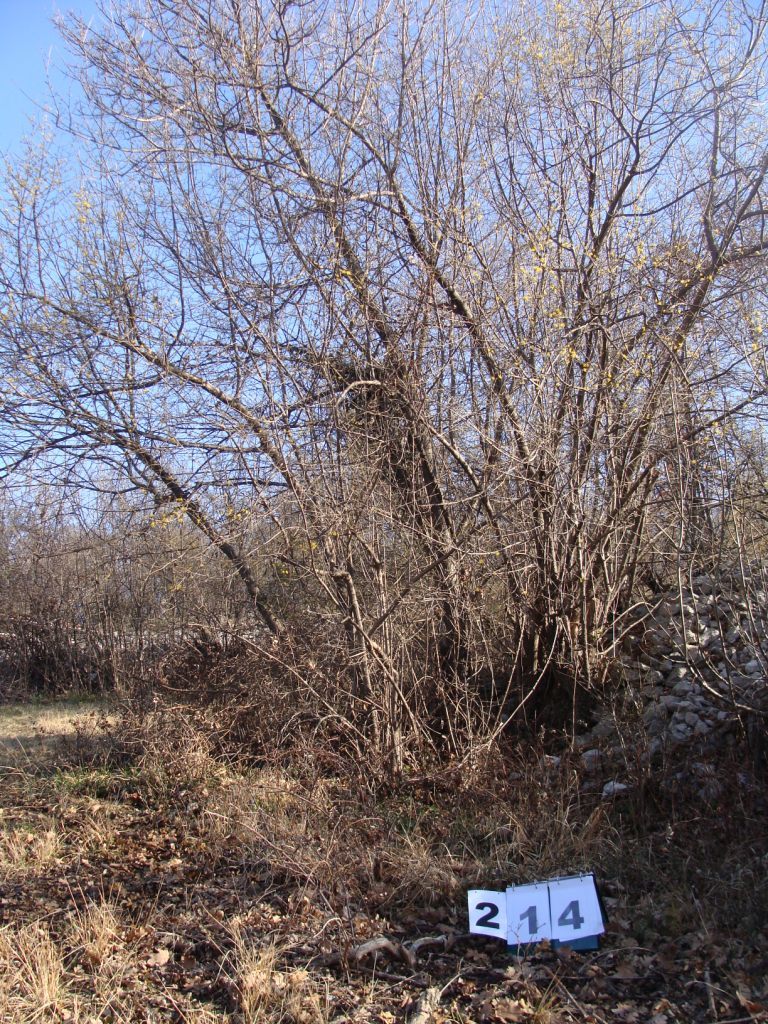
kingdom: Plantae
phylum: Tracheophyta
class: Magnoliopsida
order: Cornales
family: Cornaceae
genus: Cornus
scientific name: Cornus mas
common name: Cornelian-cherry
